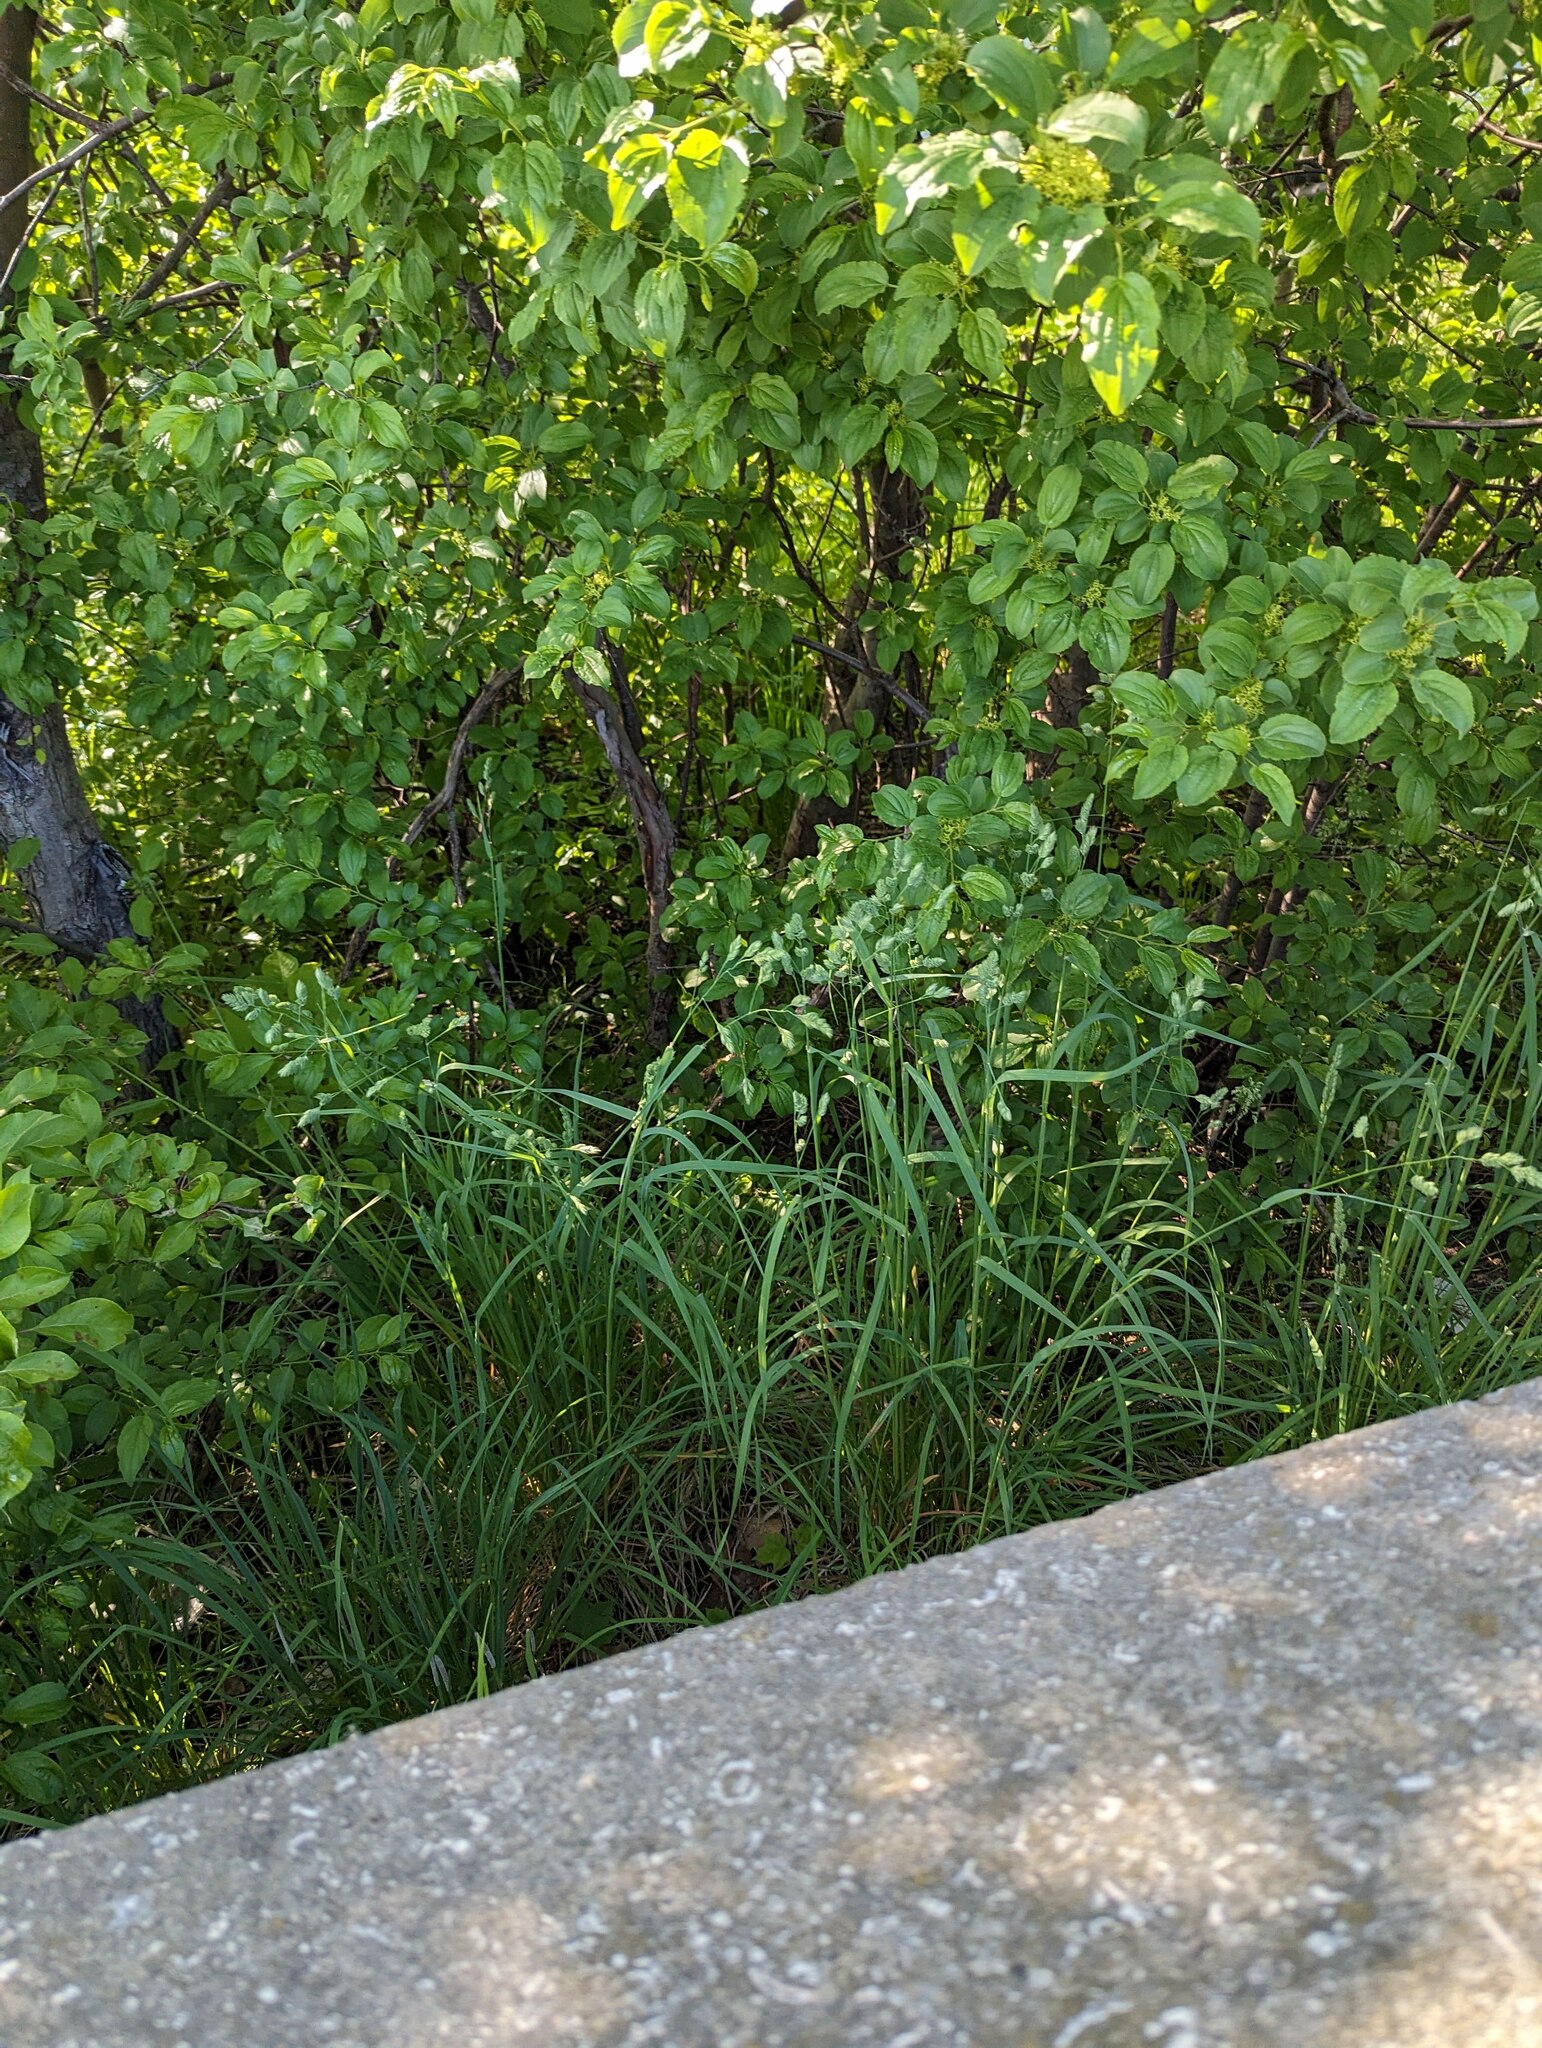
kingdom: Plantae
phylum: Tracheophyta
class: Liliopsida
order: Poales
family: Poaceae
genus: Dactylis
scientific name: Dactylis glomerata
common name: Orchardgrass
